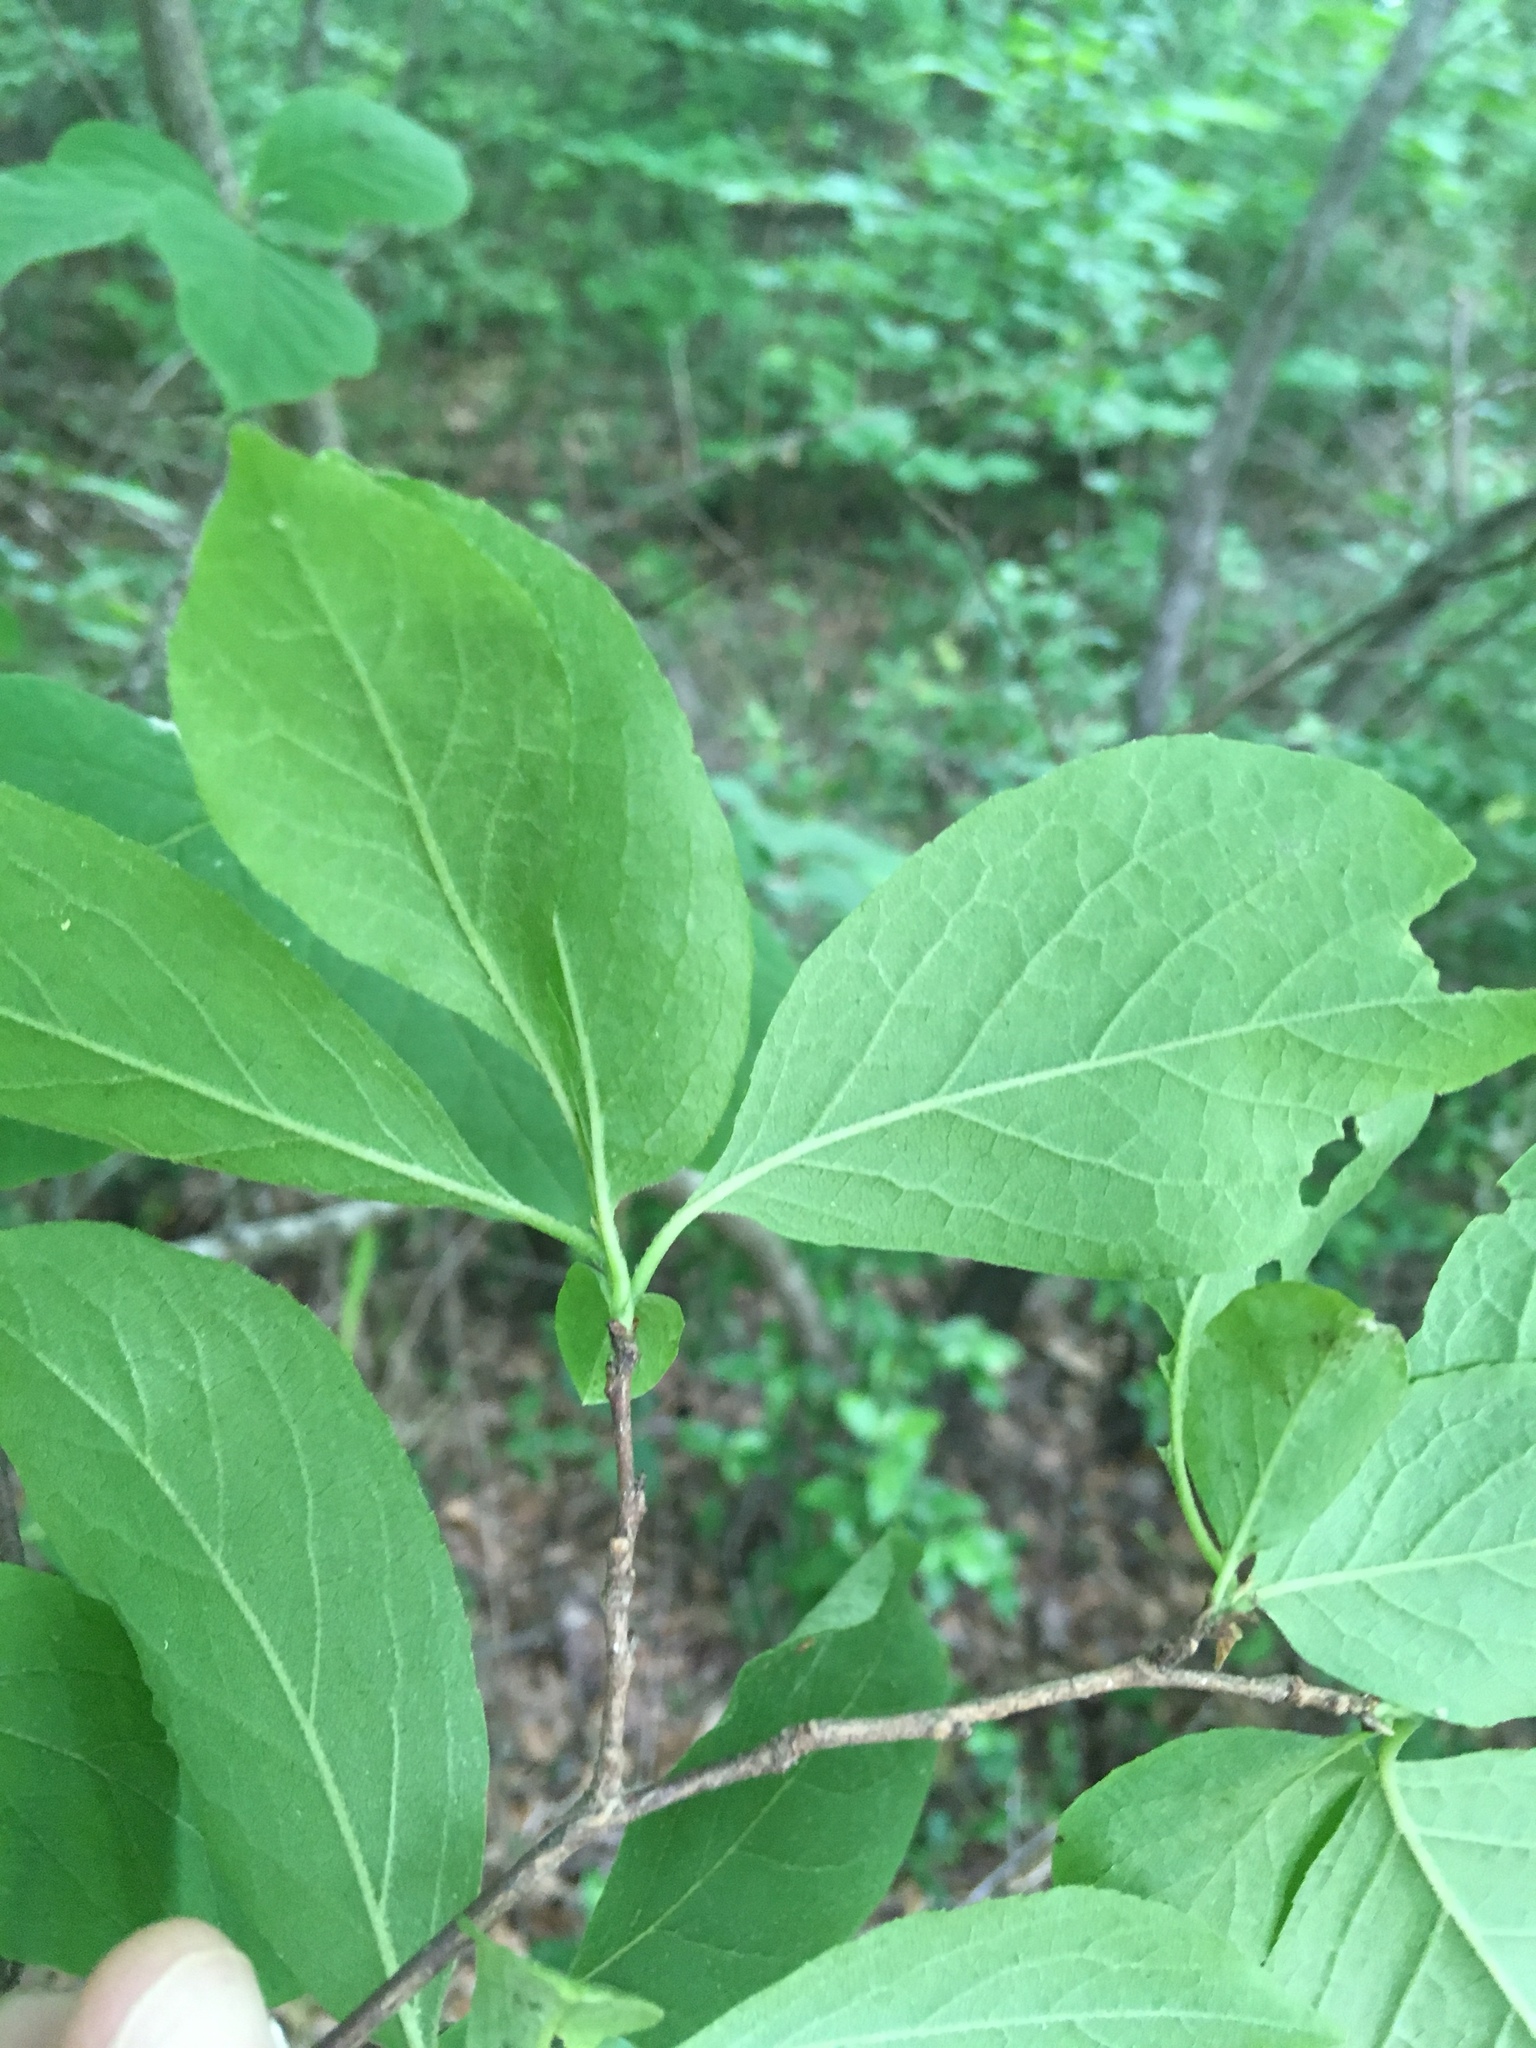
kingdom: Plantae
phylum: Tracheophyta
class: Magnoliopsida
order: Ericales
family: Styracaceae
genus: Halesia
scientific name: Halesia tetraptera
